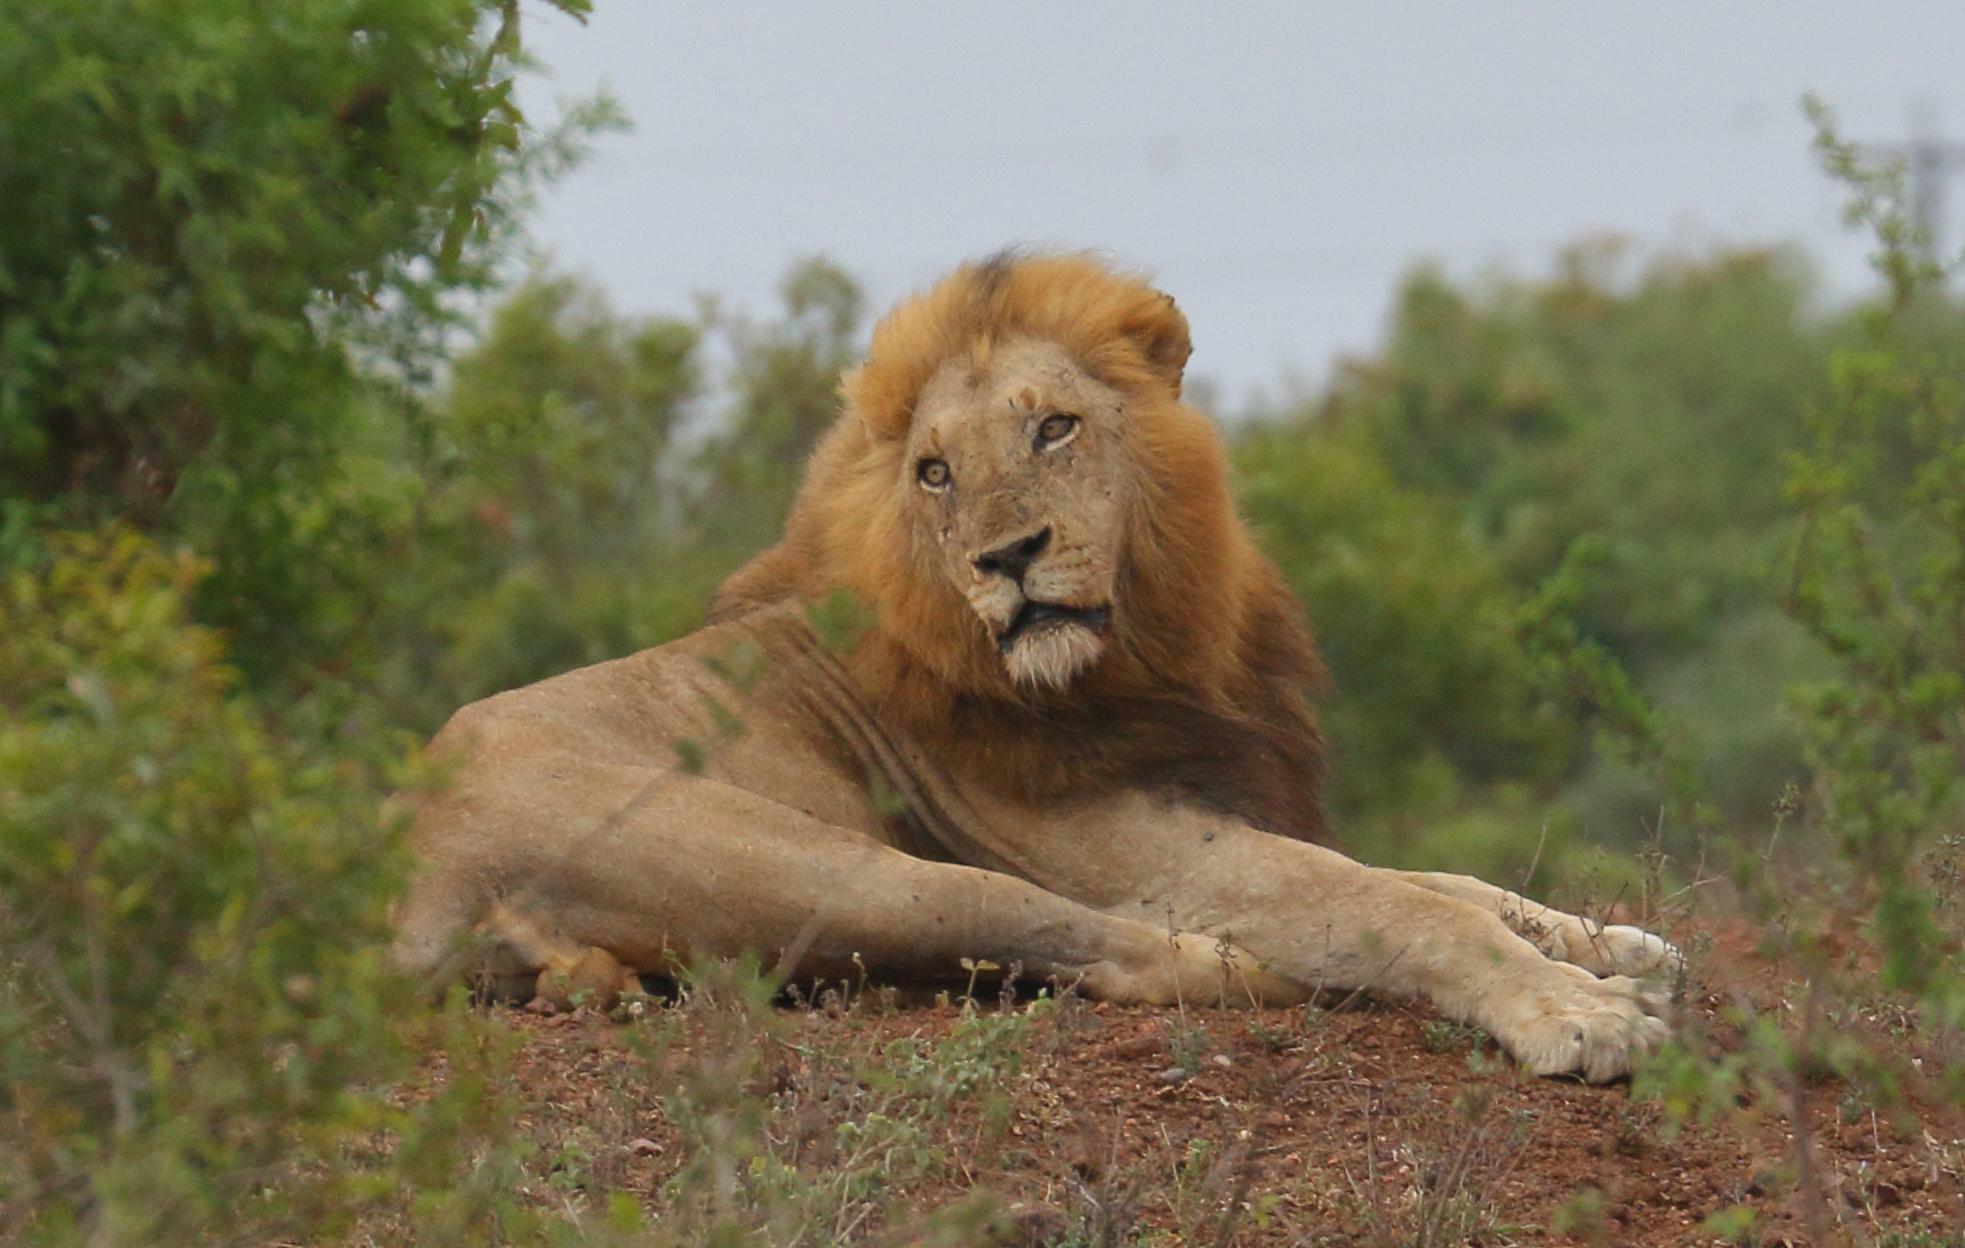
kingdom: Animalia
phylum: Chordata
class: Mammalia
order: Carnivora
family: Felidae
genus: Panthera
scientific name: Panthera leo
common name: Lion
